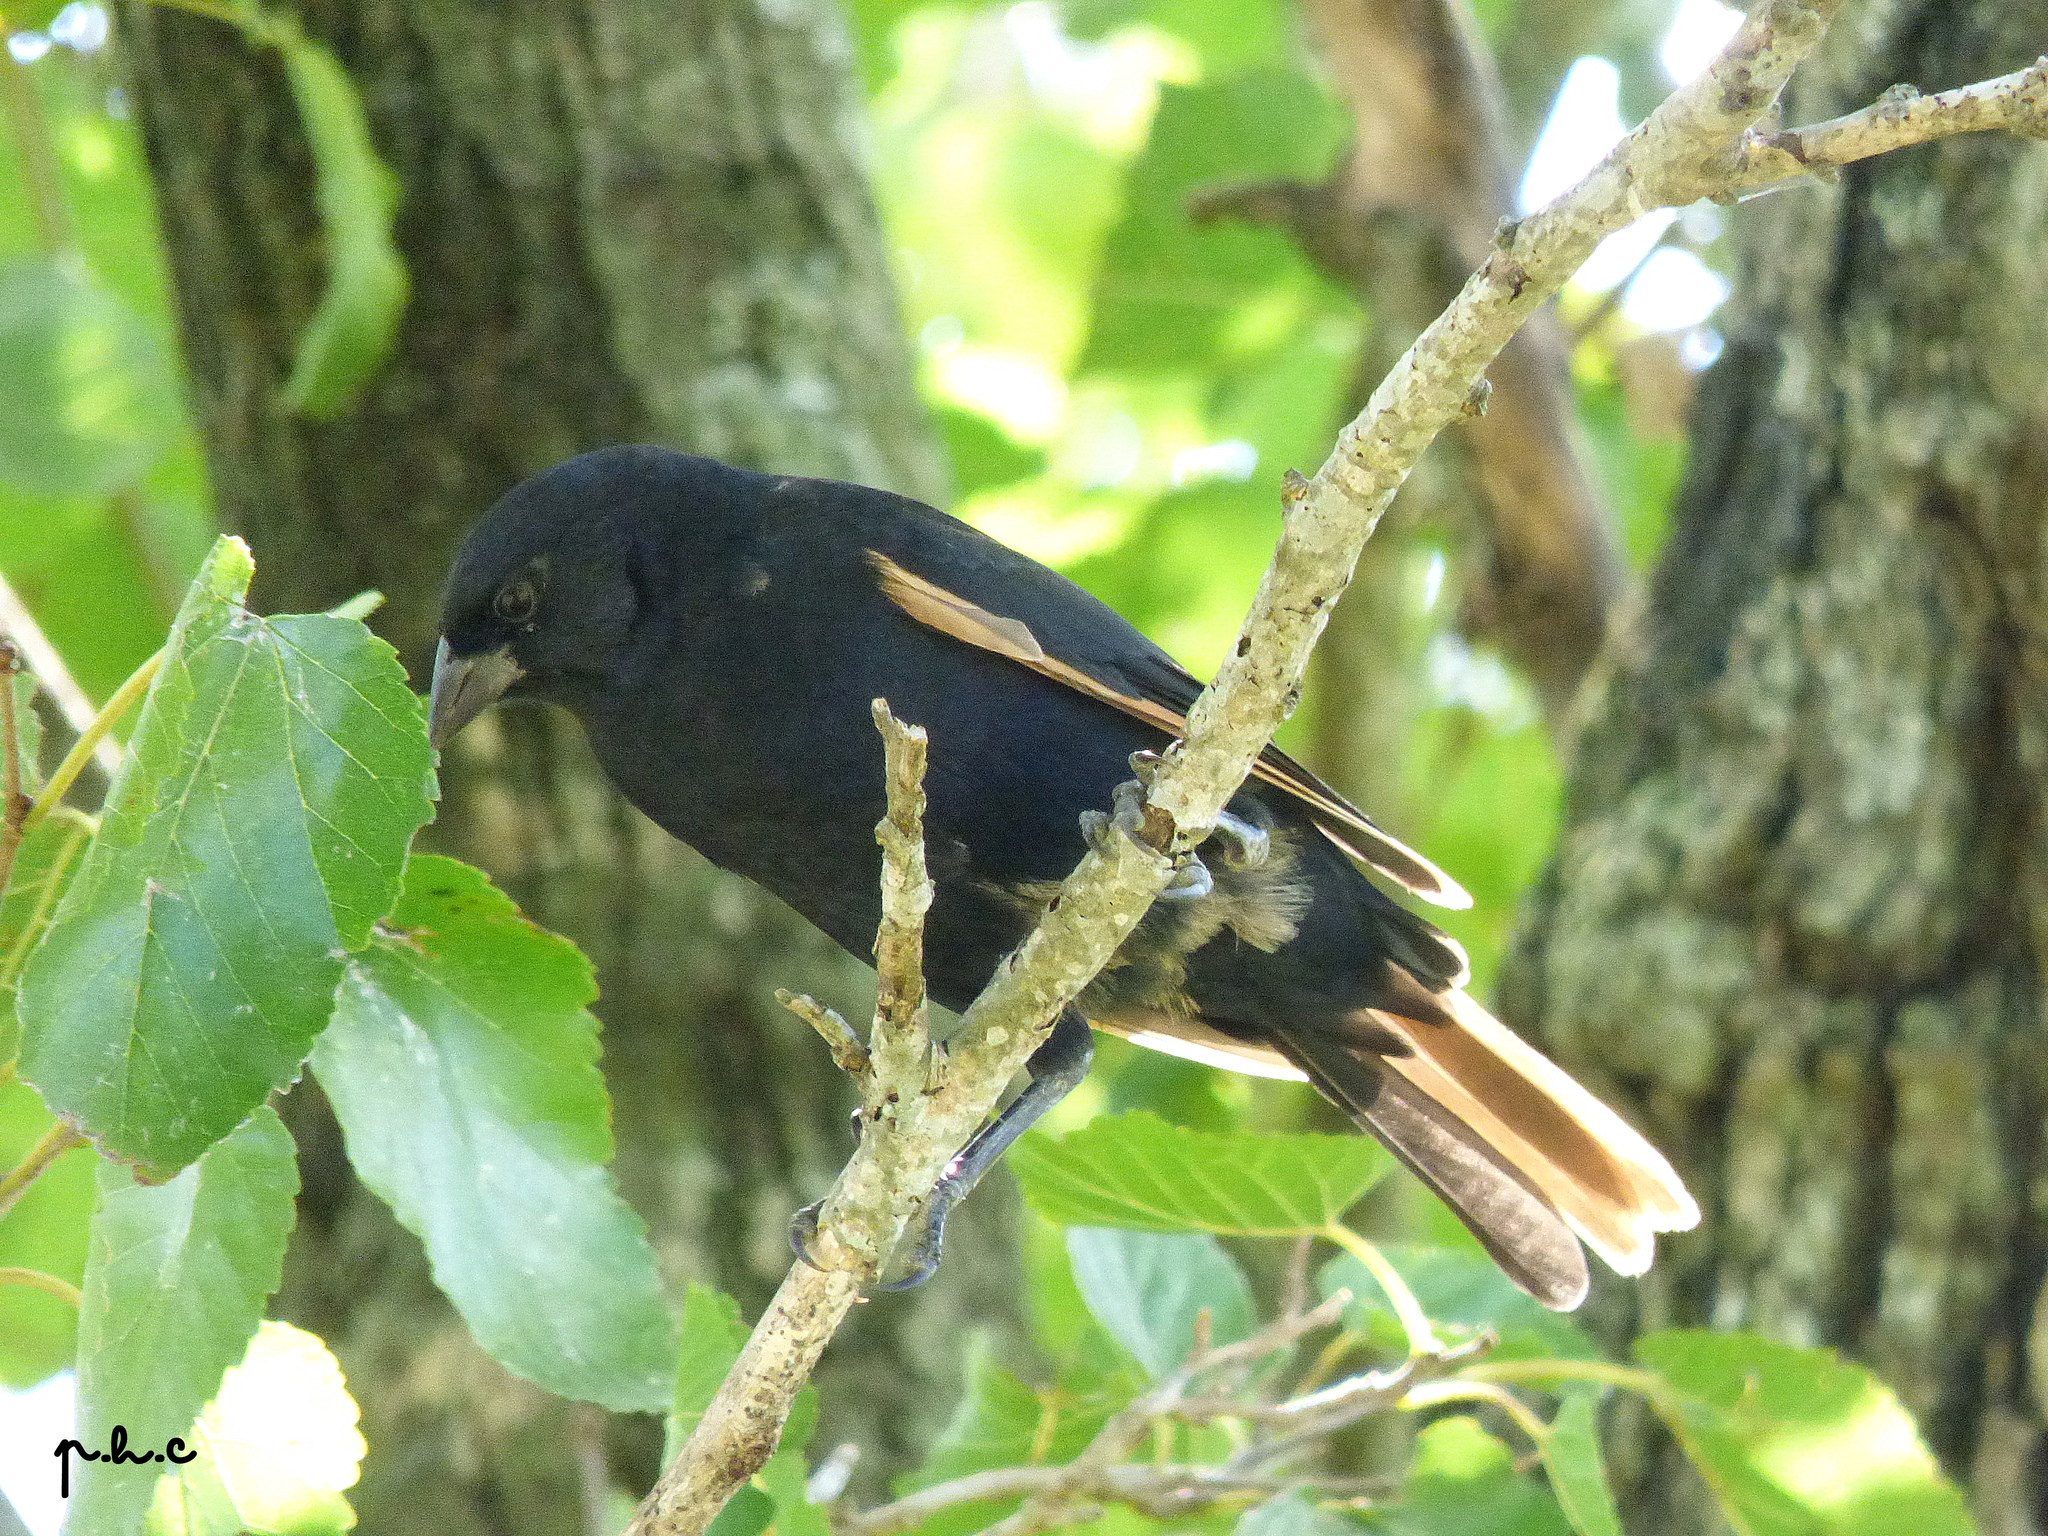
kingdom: Animalia
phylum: Chordata
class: Aves
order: Passeriformes
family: Icteridae
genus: Molothrus
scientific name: Molothrus rufoaxillaris
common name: Screaming cowbird
